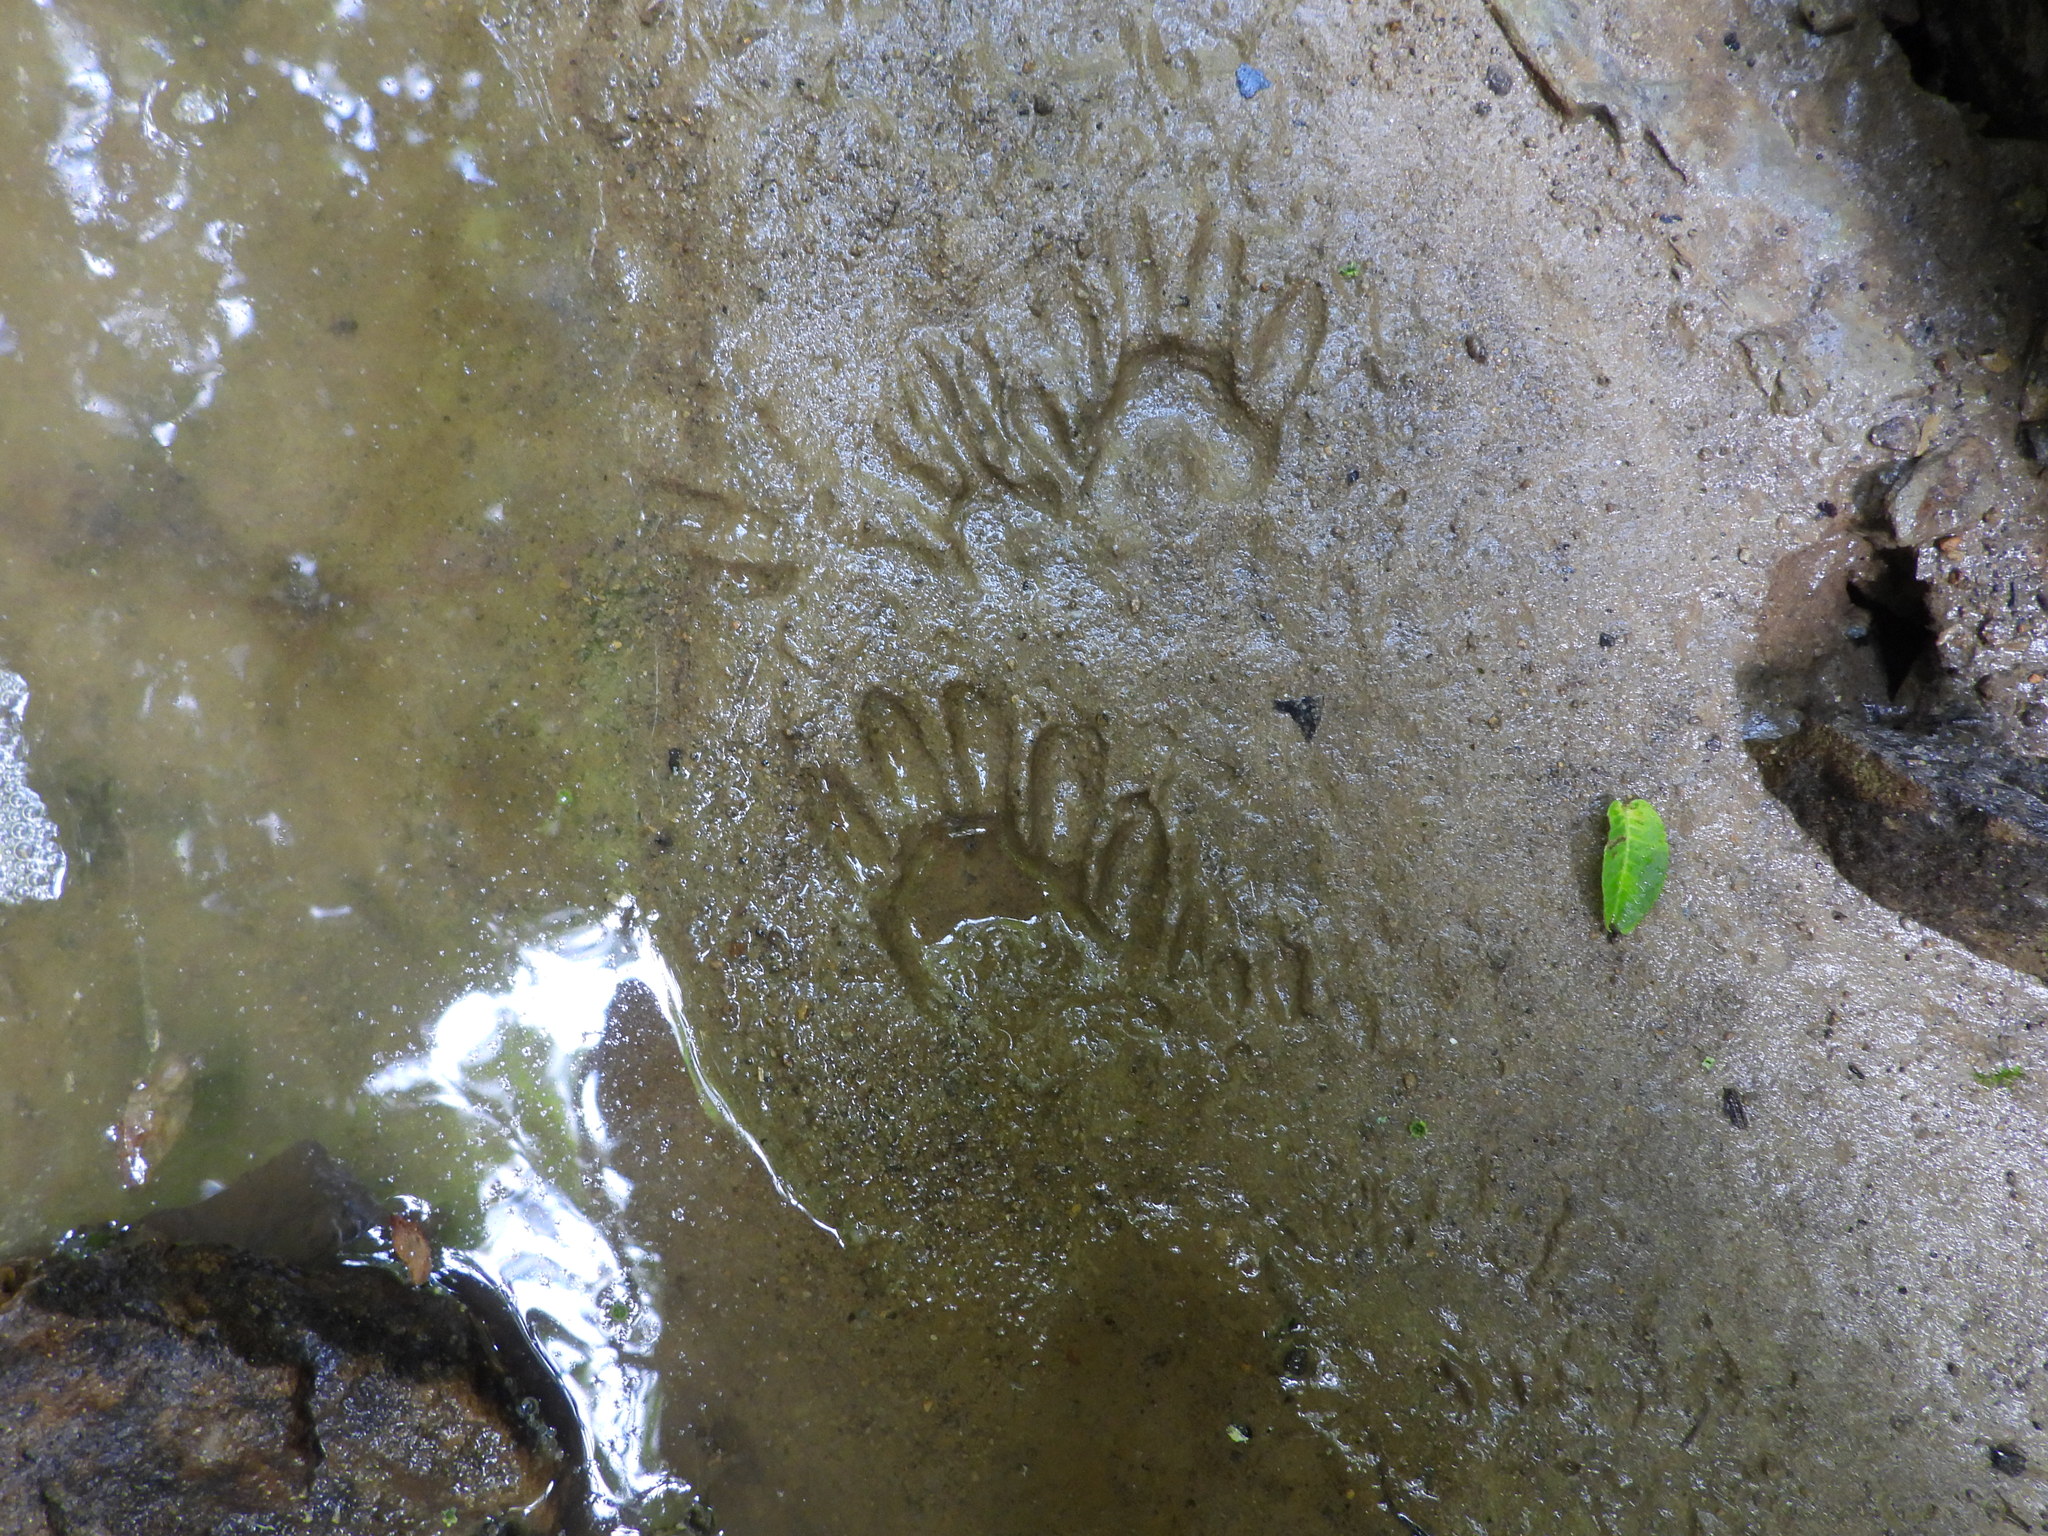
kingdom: Animalia
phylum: Chordata
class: Mammalia
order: Carnivora
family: Procyonidae
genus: Procyon
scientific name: Procyon lotor
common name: Raccoon
